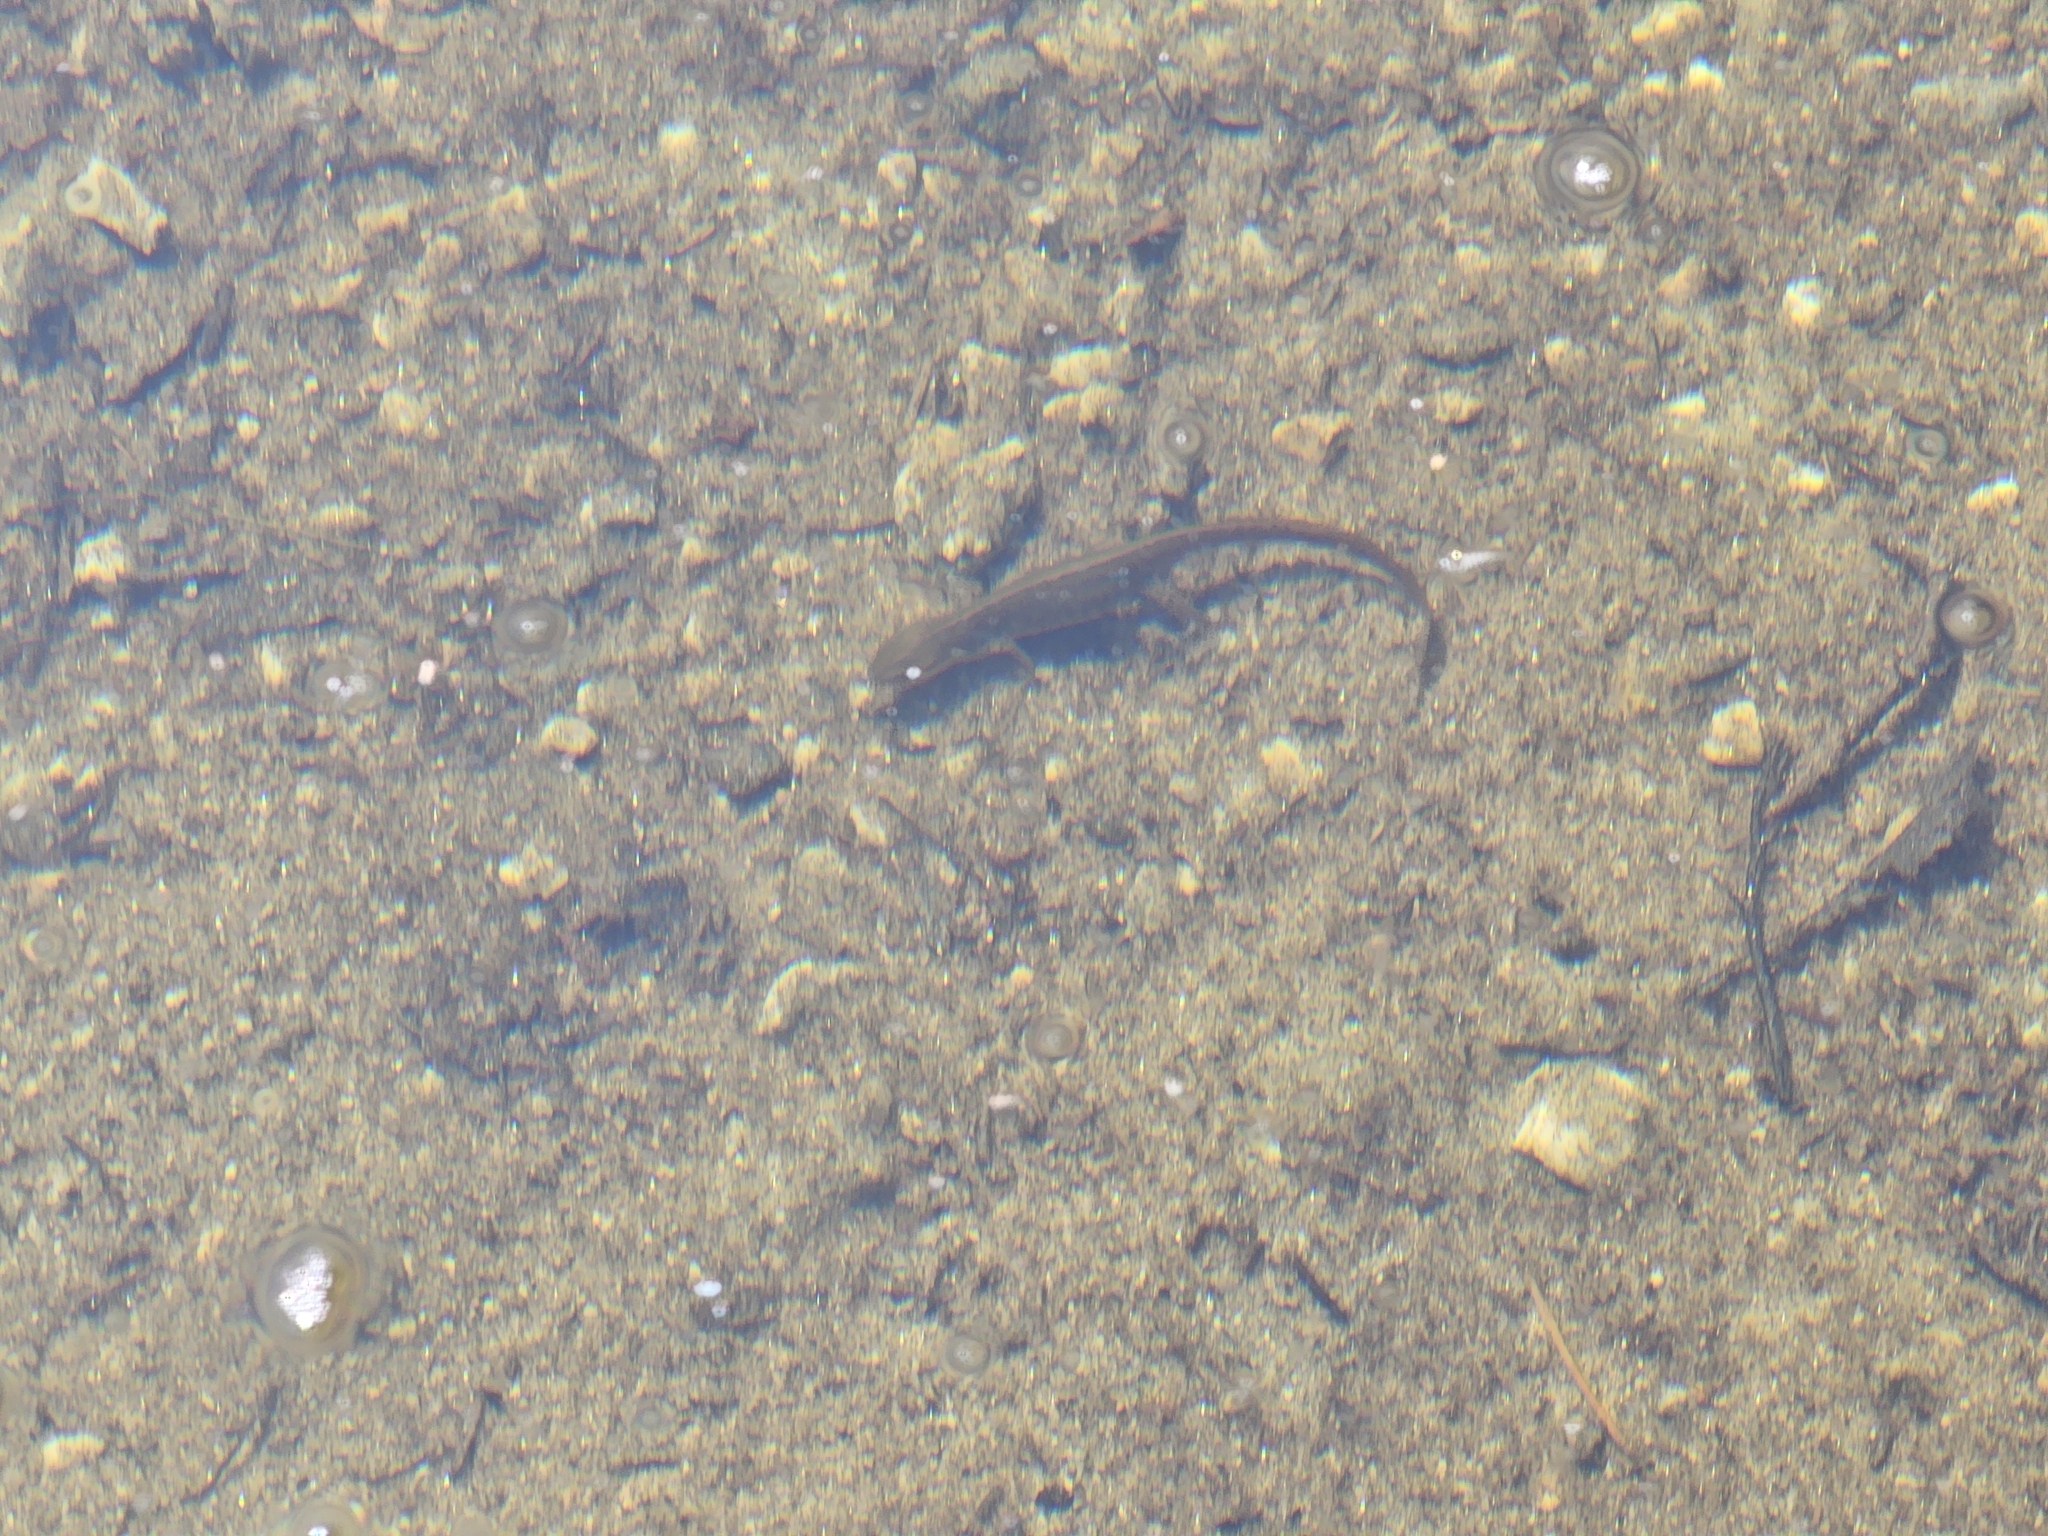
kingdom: Animalia
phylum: Chordata
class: Amphibia
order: Caudata
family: Salamandridae
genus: Notophthalmus
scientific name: Notophthalmus viridescens
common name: Eastern newt
